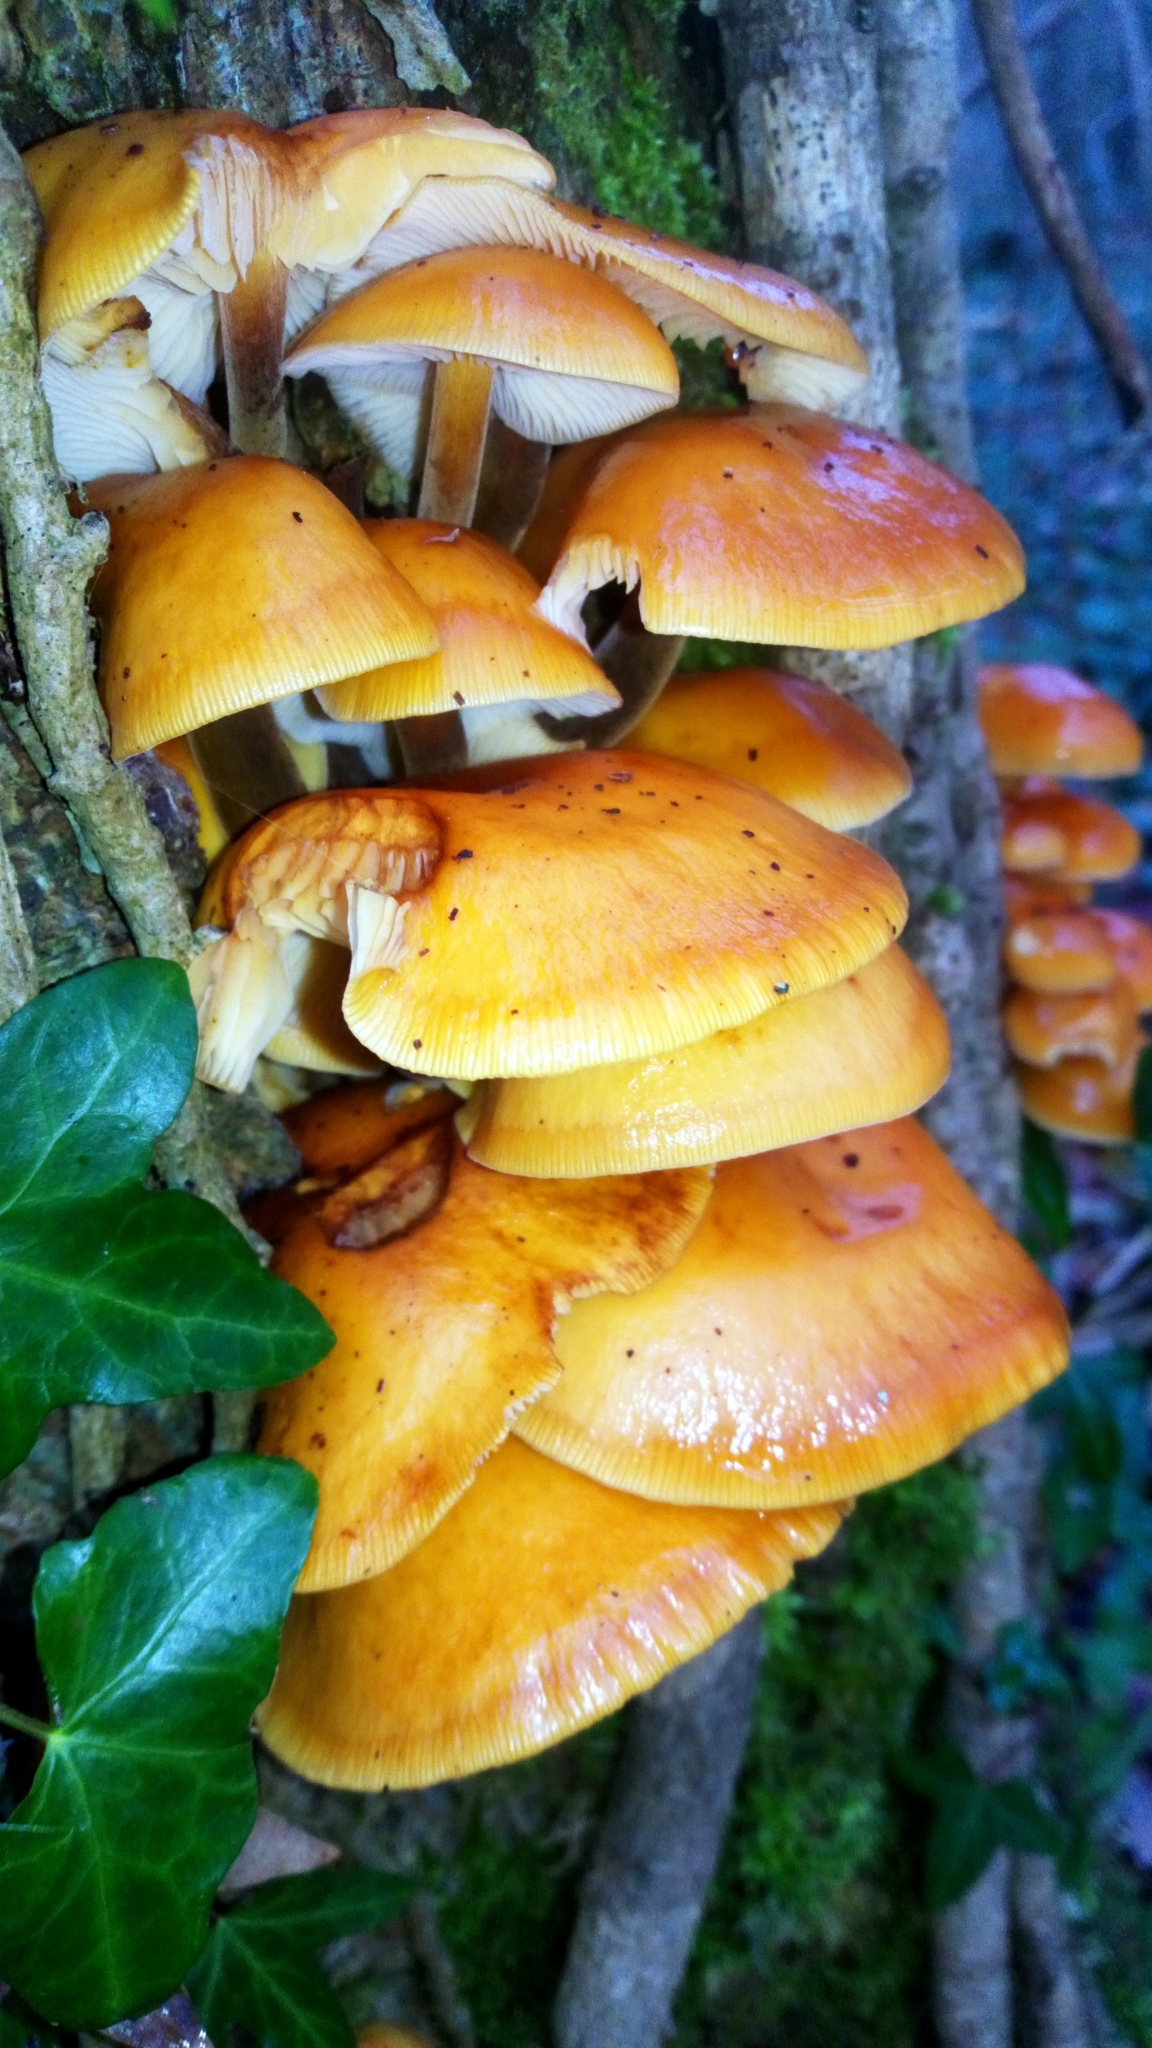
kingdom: Fungi
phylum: Basidiomycota
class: Agaricomycetes
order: Agaricales
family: Physalacriaceae
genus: Flammulina
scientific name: Flammulina
